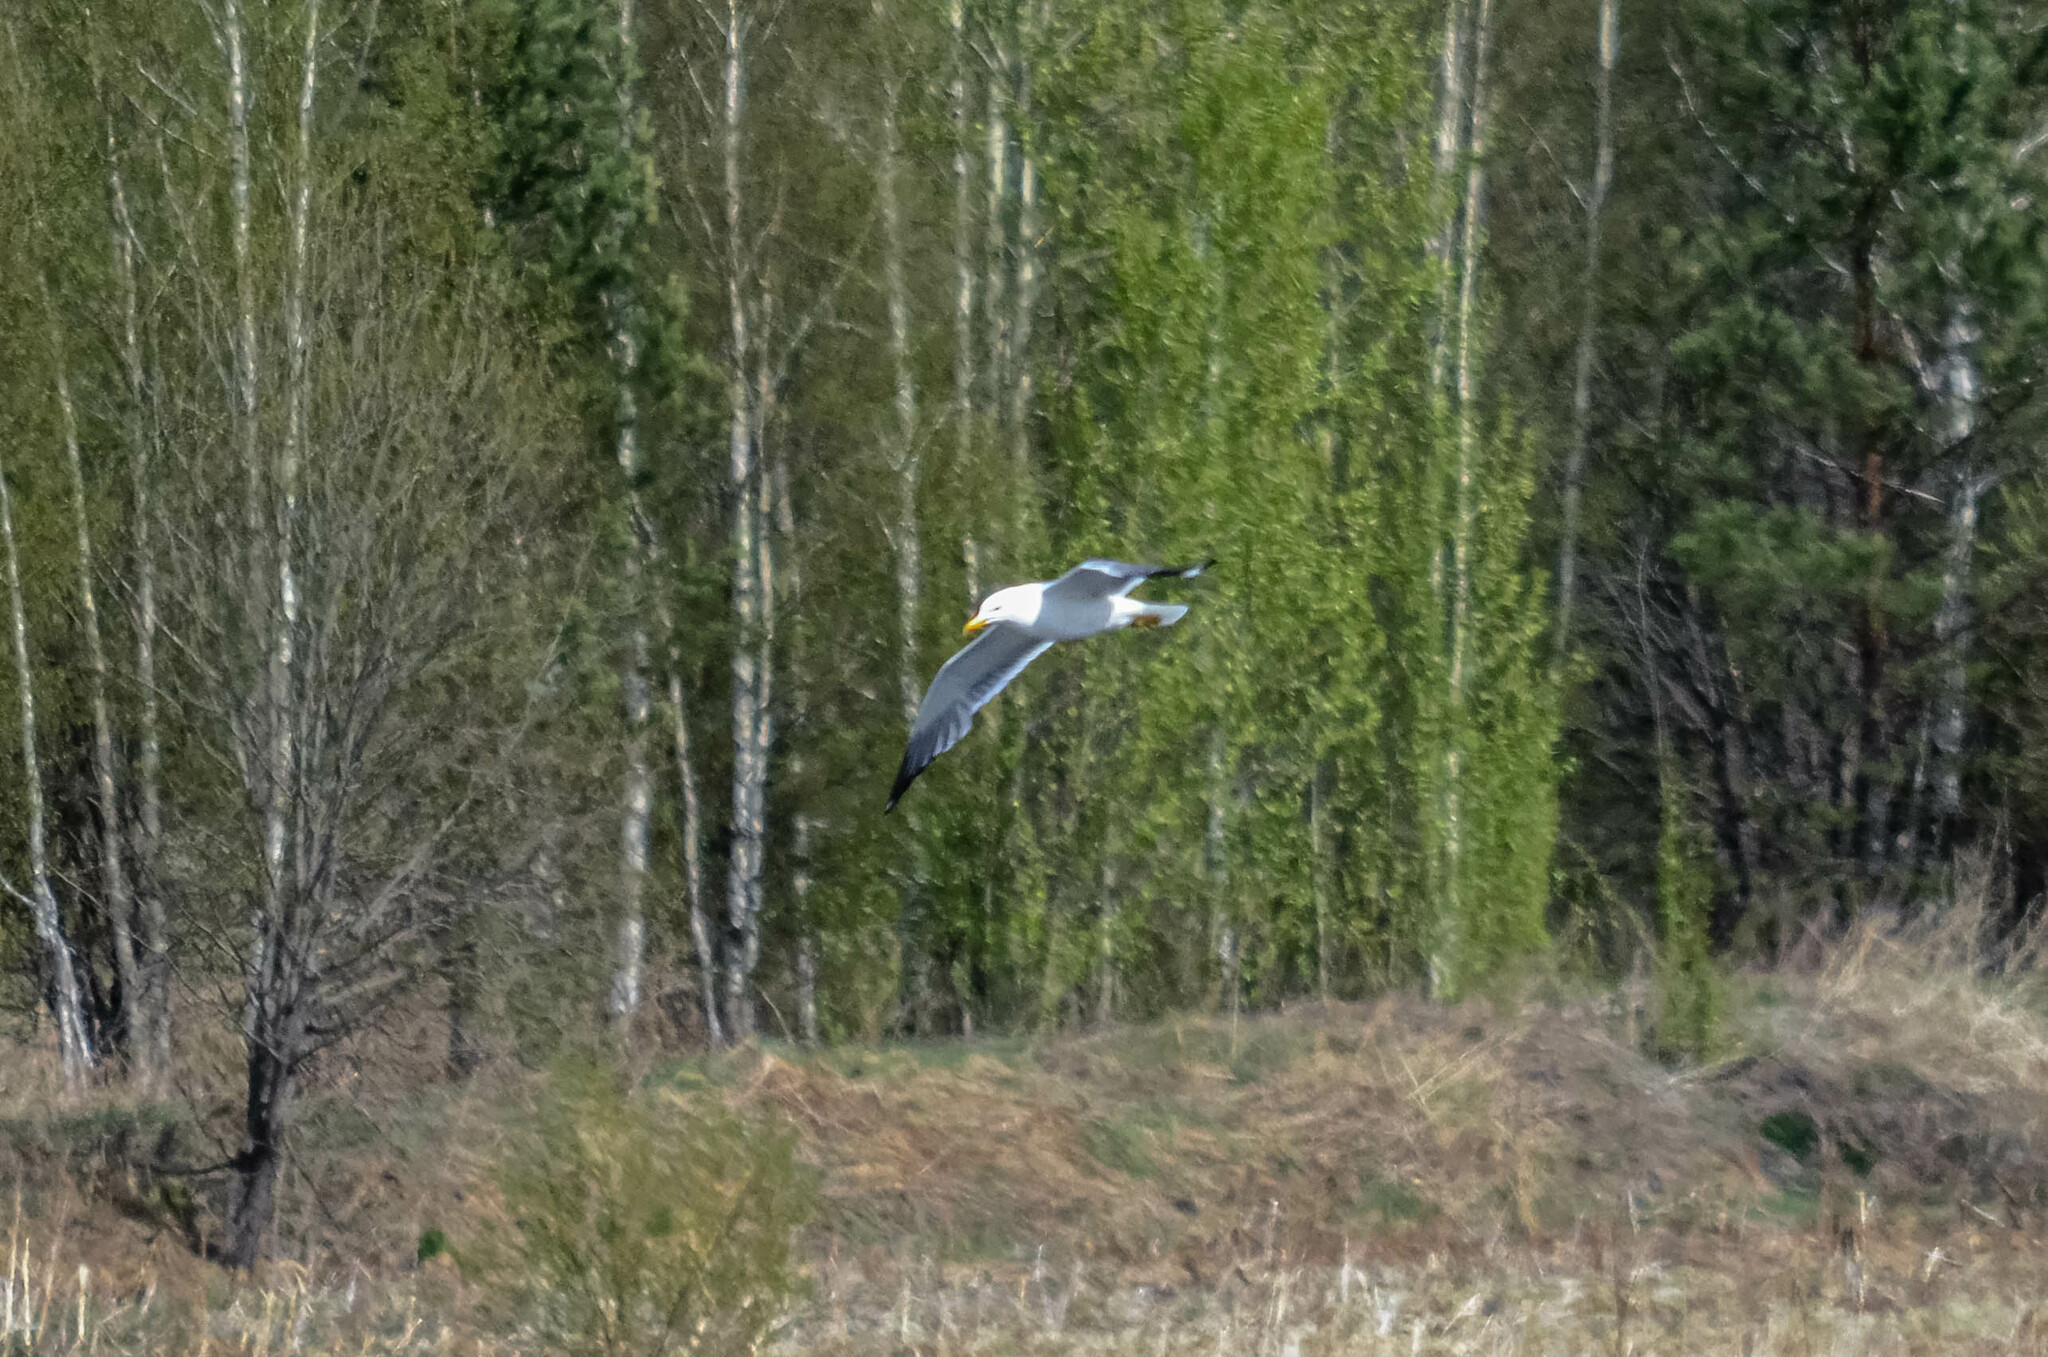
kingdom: Animalia
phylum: Chordata
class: Aves
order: Charadriiformes
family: Laridae
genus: Larus
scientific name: Larus fuscus
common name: Lesser black-backed gull
